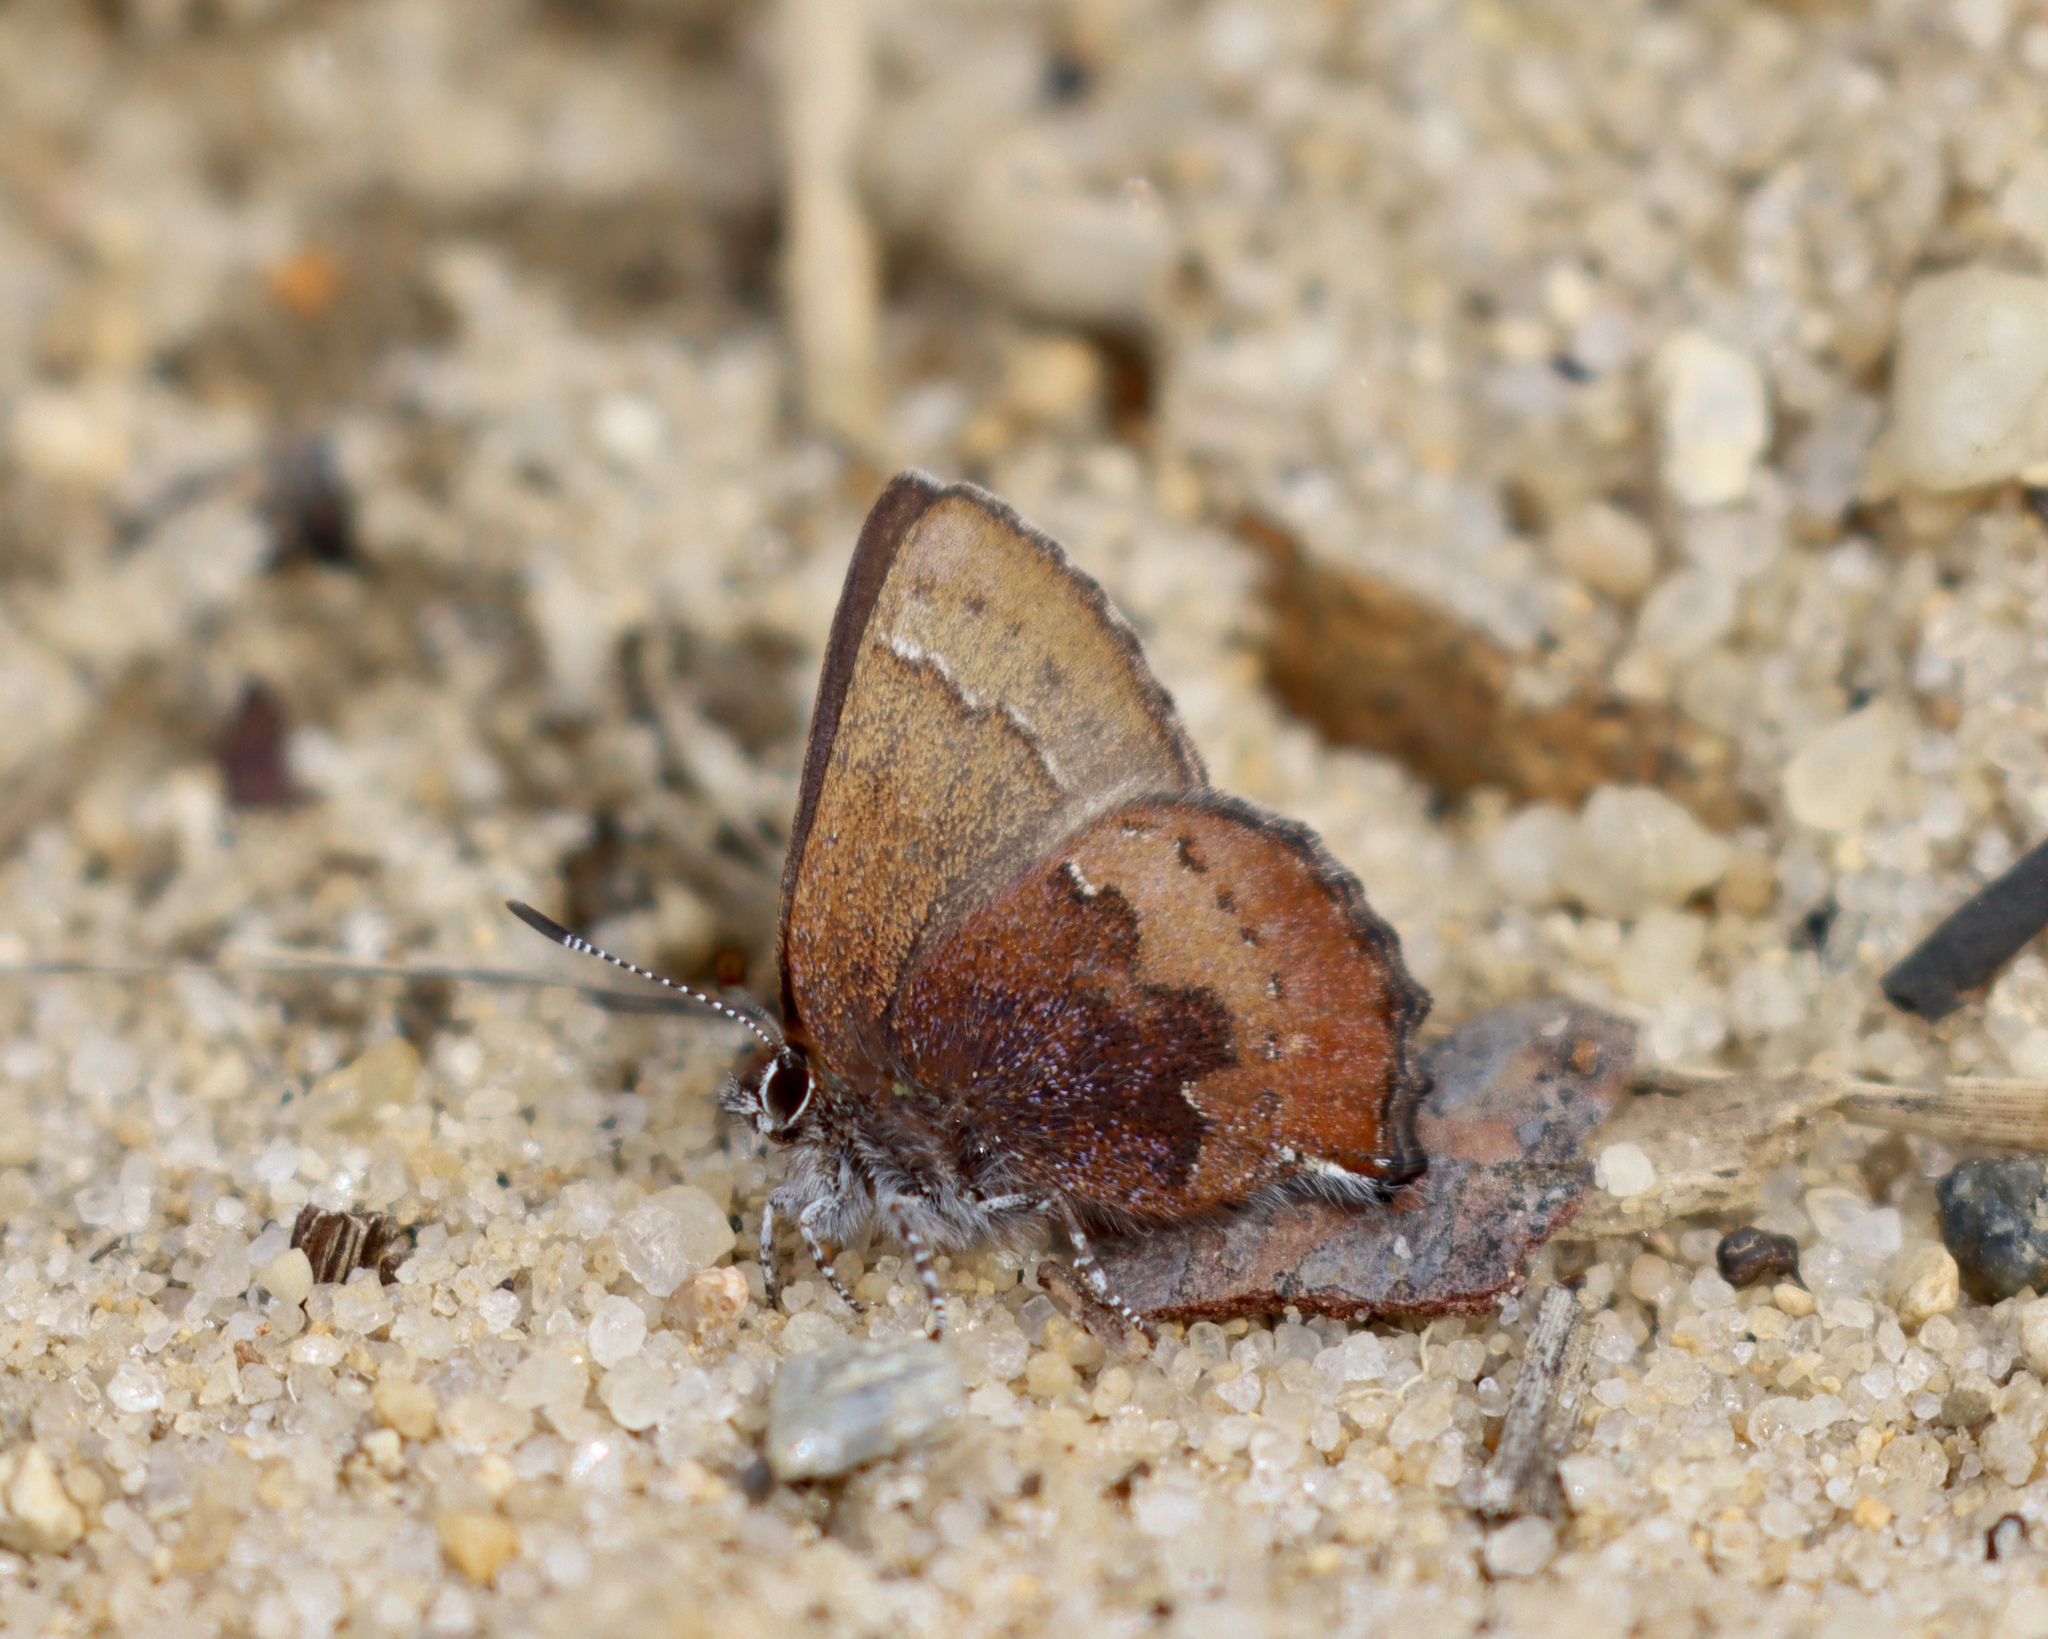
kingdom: Animalia
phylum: Arthropoda
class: Insecta
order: Lepidoptera
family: Lycaenidae
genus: Incisalia
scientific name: Incisalia irioides
